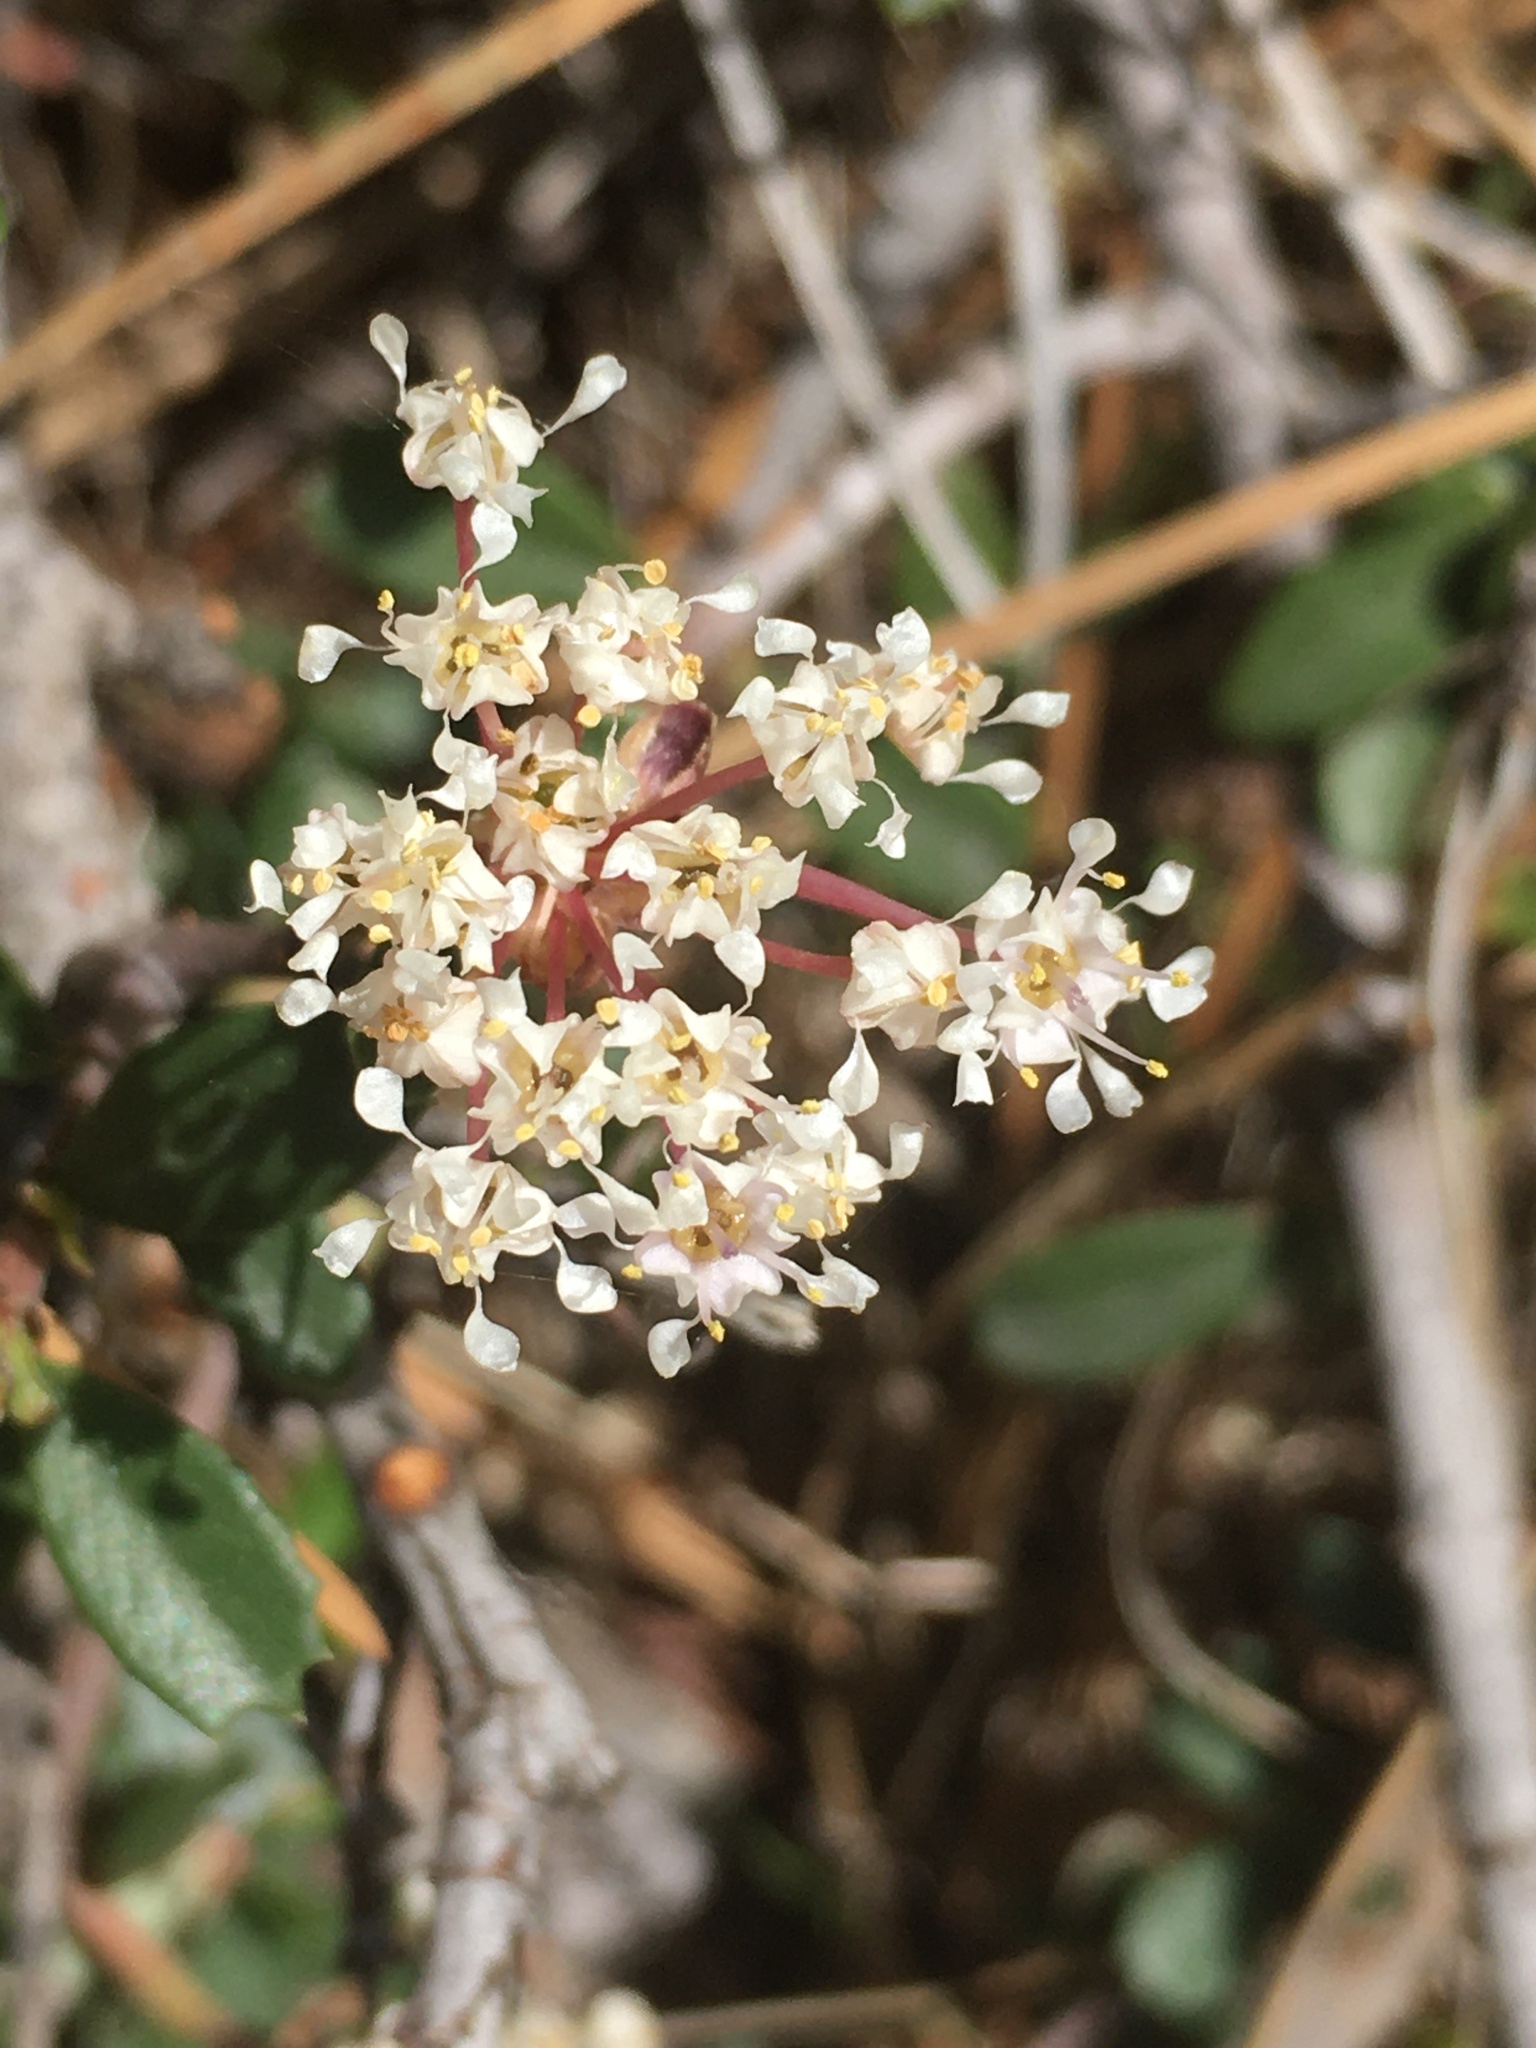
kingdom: Plantae
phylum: Tracheophyta
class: Magnoliopsida
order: Rosales
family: Rhamnaceae
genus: Ceanothus
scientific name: Ceanothus prostratus
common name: Mahala-mat
